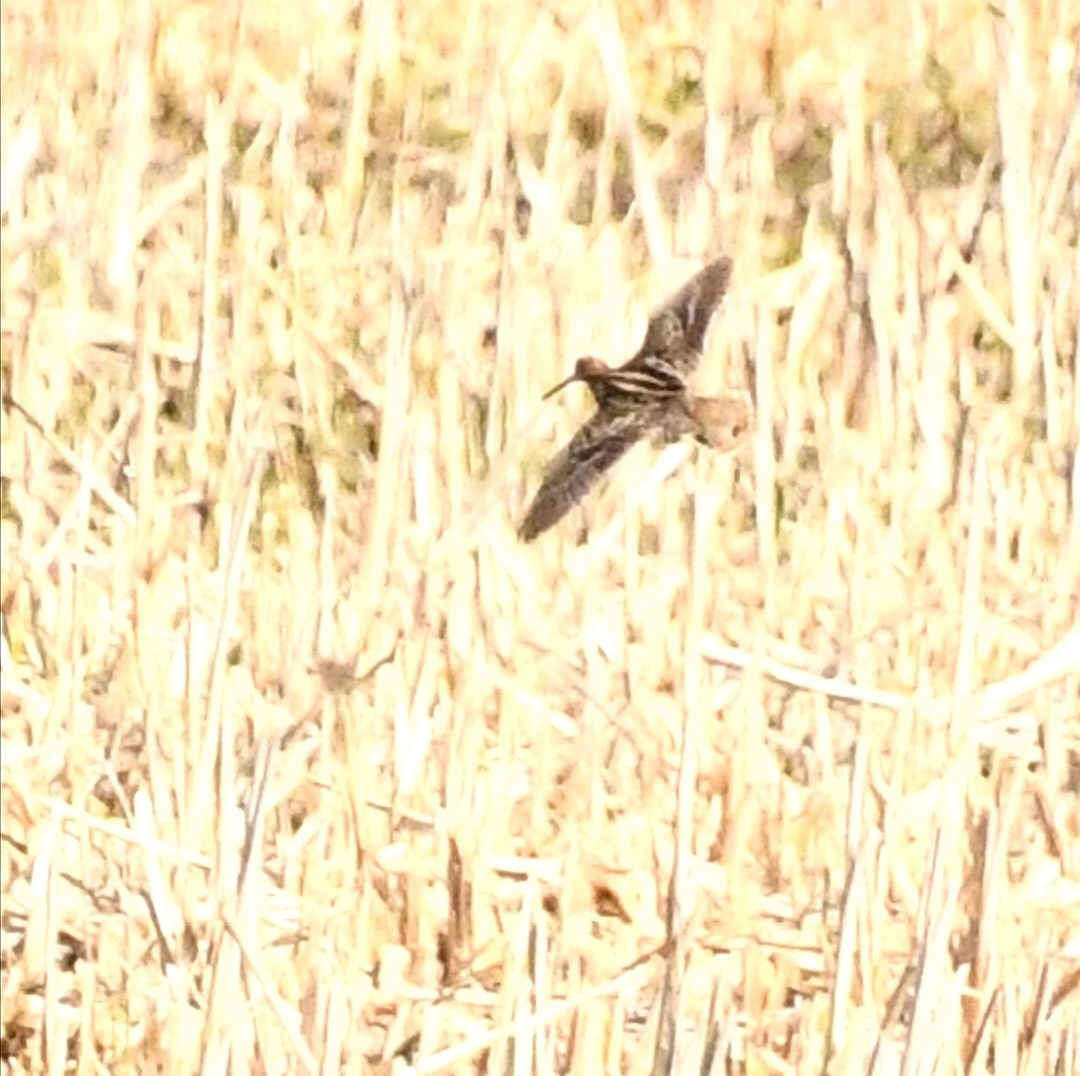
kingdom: Animalia
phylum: Chordata
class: Aves
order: Charadriiformes
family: Scolopacidae
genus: Gallinago
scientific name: Gallinago delicata
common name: Wilson's snipe
